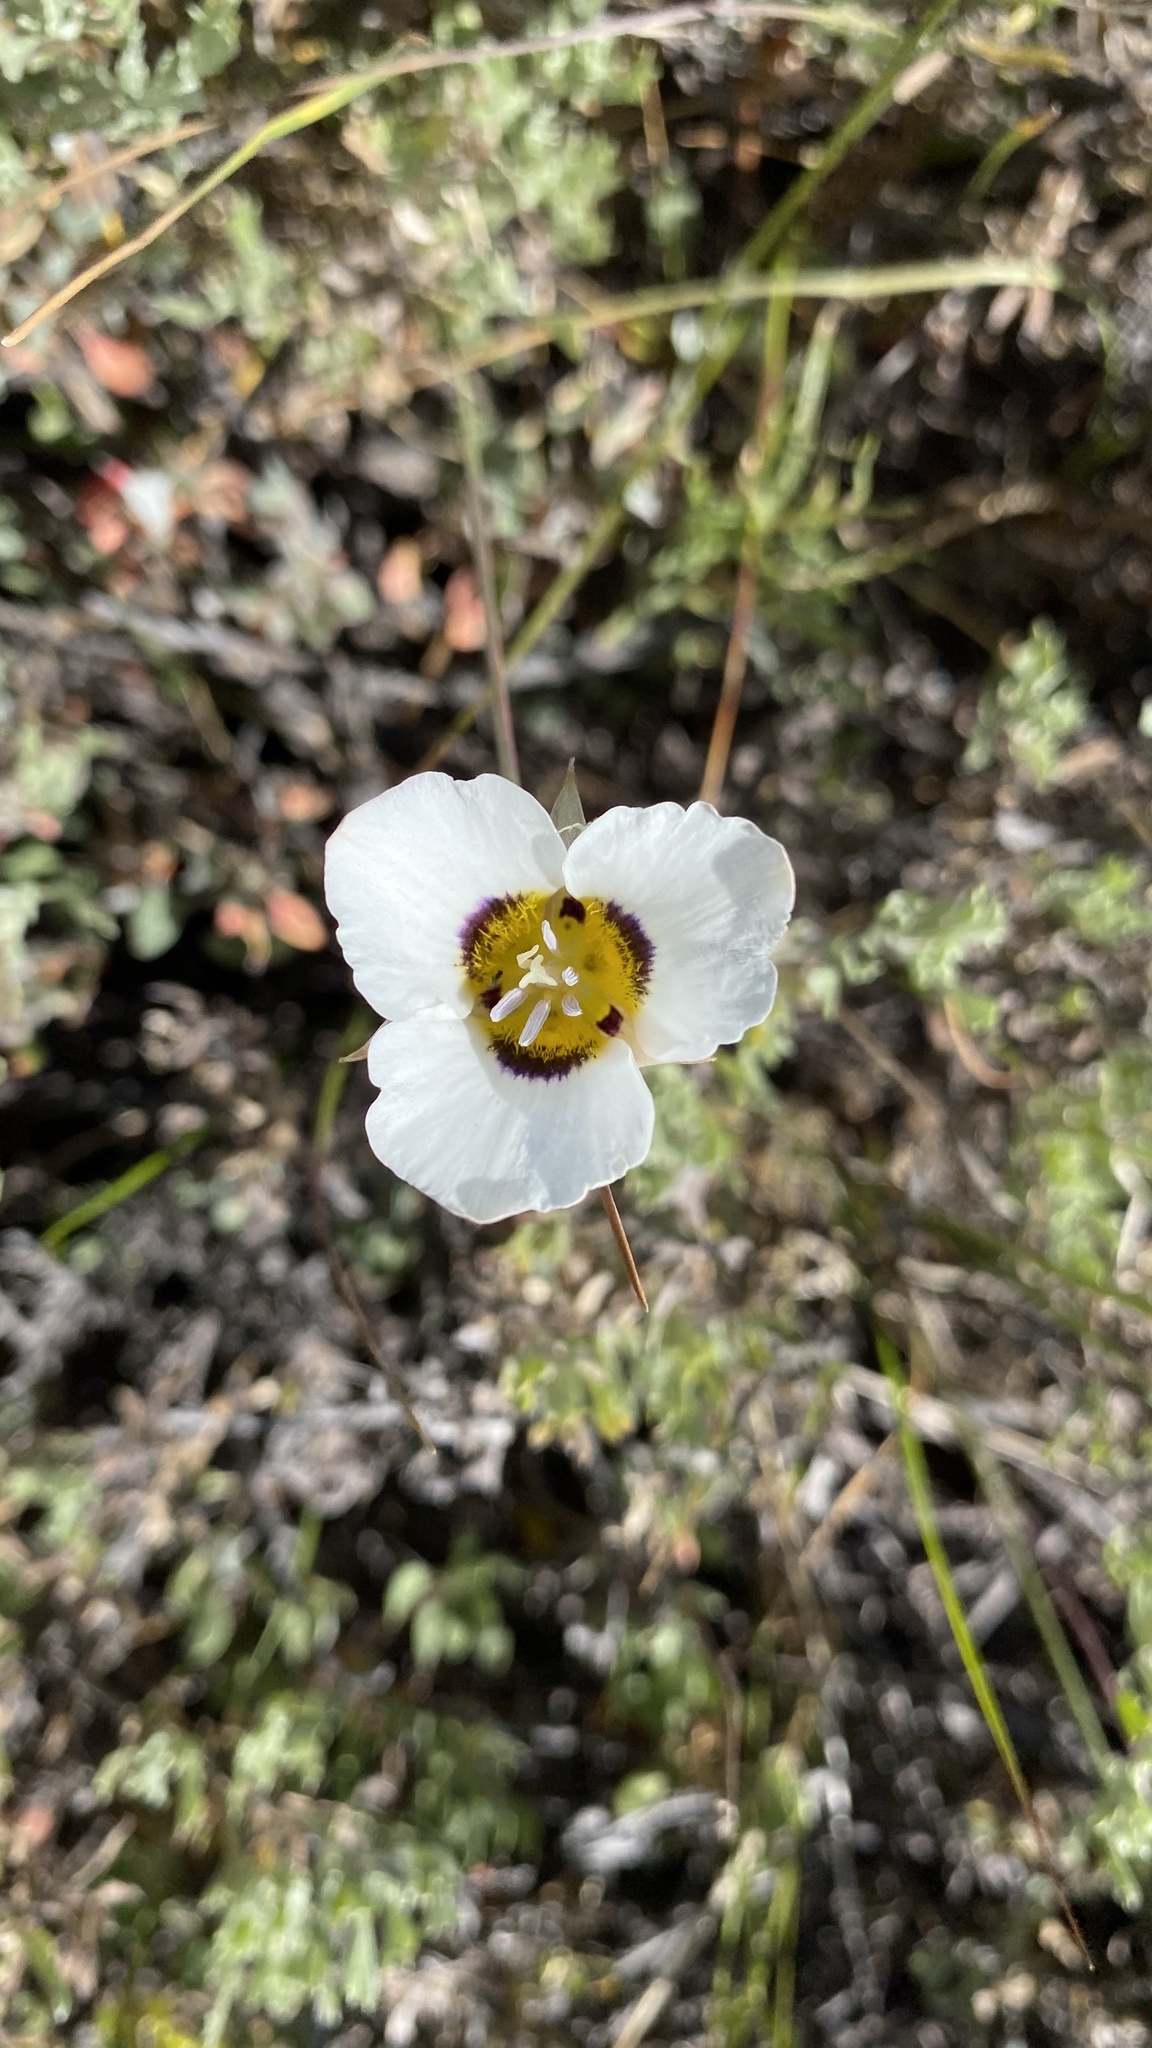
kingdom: Plantae
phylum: Tracheophyta
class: Liliopsida
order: Liliales
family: Liliaceae
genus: Calochortus
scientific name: Calochortus leichtlinii
